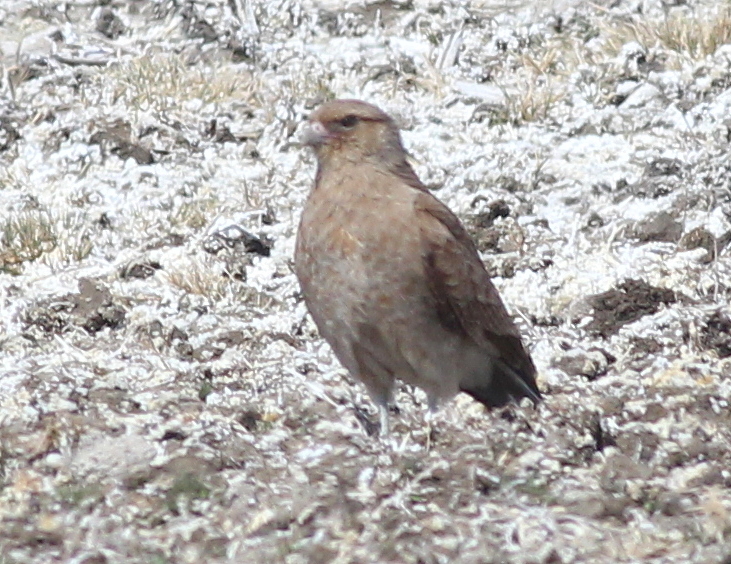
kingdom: Animalia
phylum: Chordata
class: Aves
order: Falconiformes
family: Falconidae
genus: Daptrius
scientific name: Daptrius
